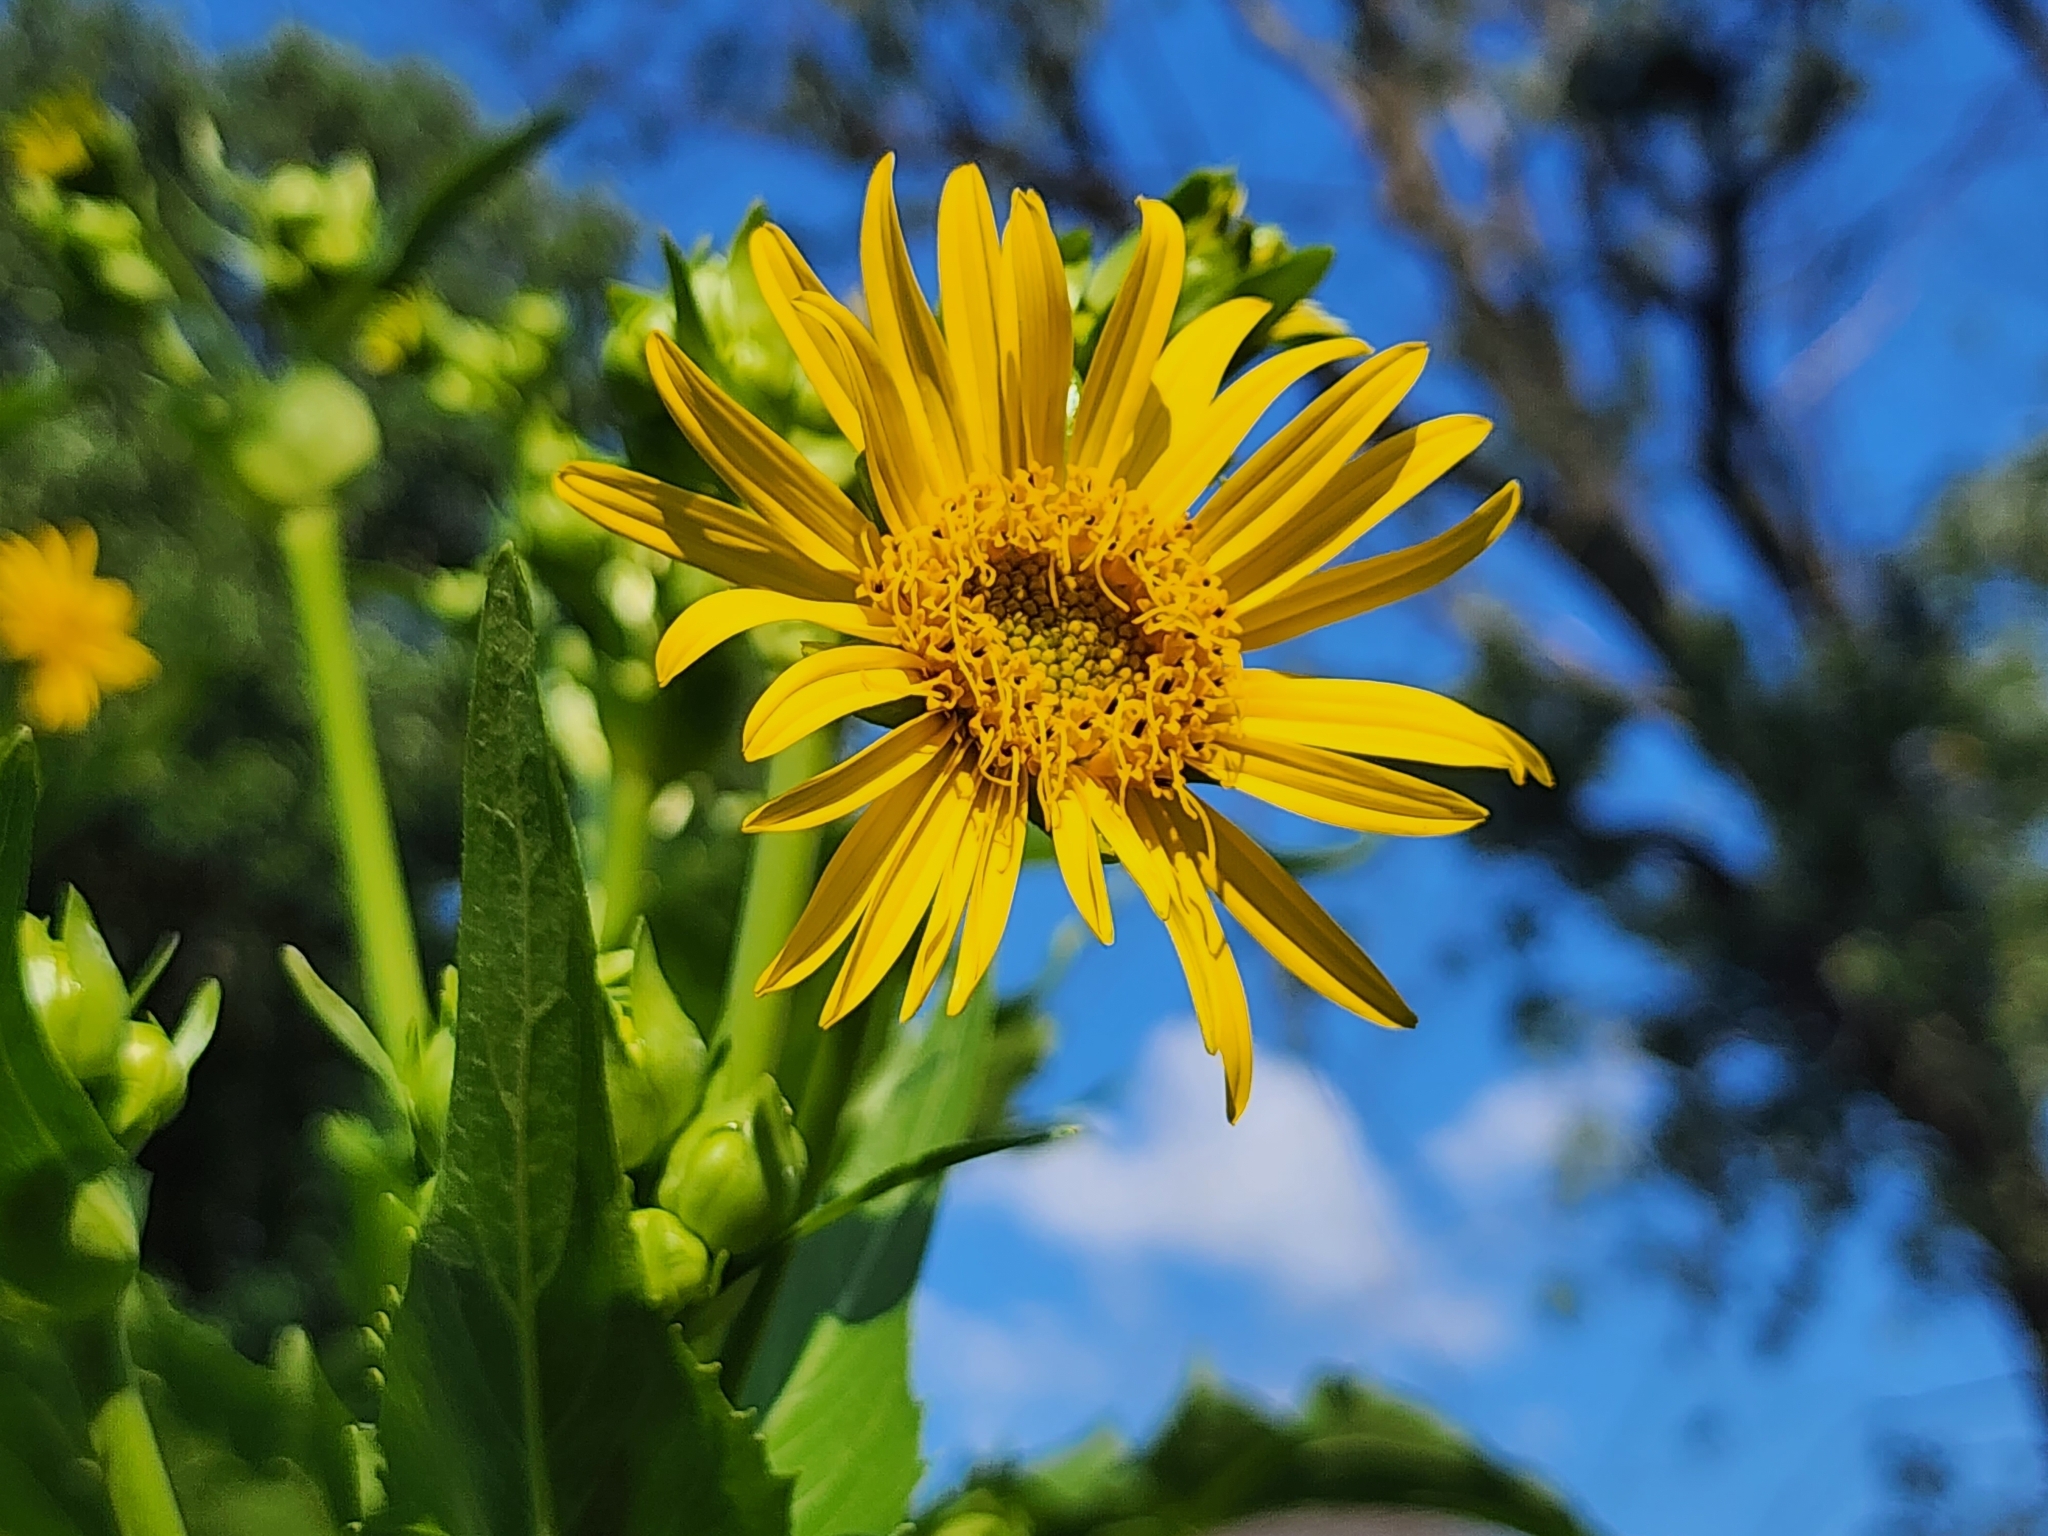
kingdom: Plantae
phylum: Tracheophyta
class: Magnoliopsida
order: Asterales
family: Asteraceae
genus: Silphium
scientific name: Silphium perfoliatum
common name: Cup-plant
